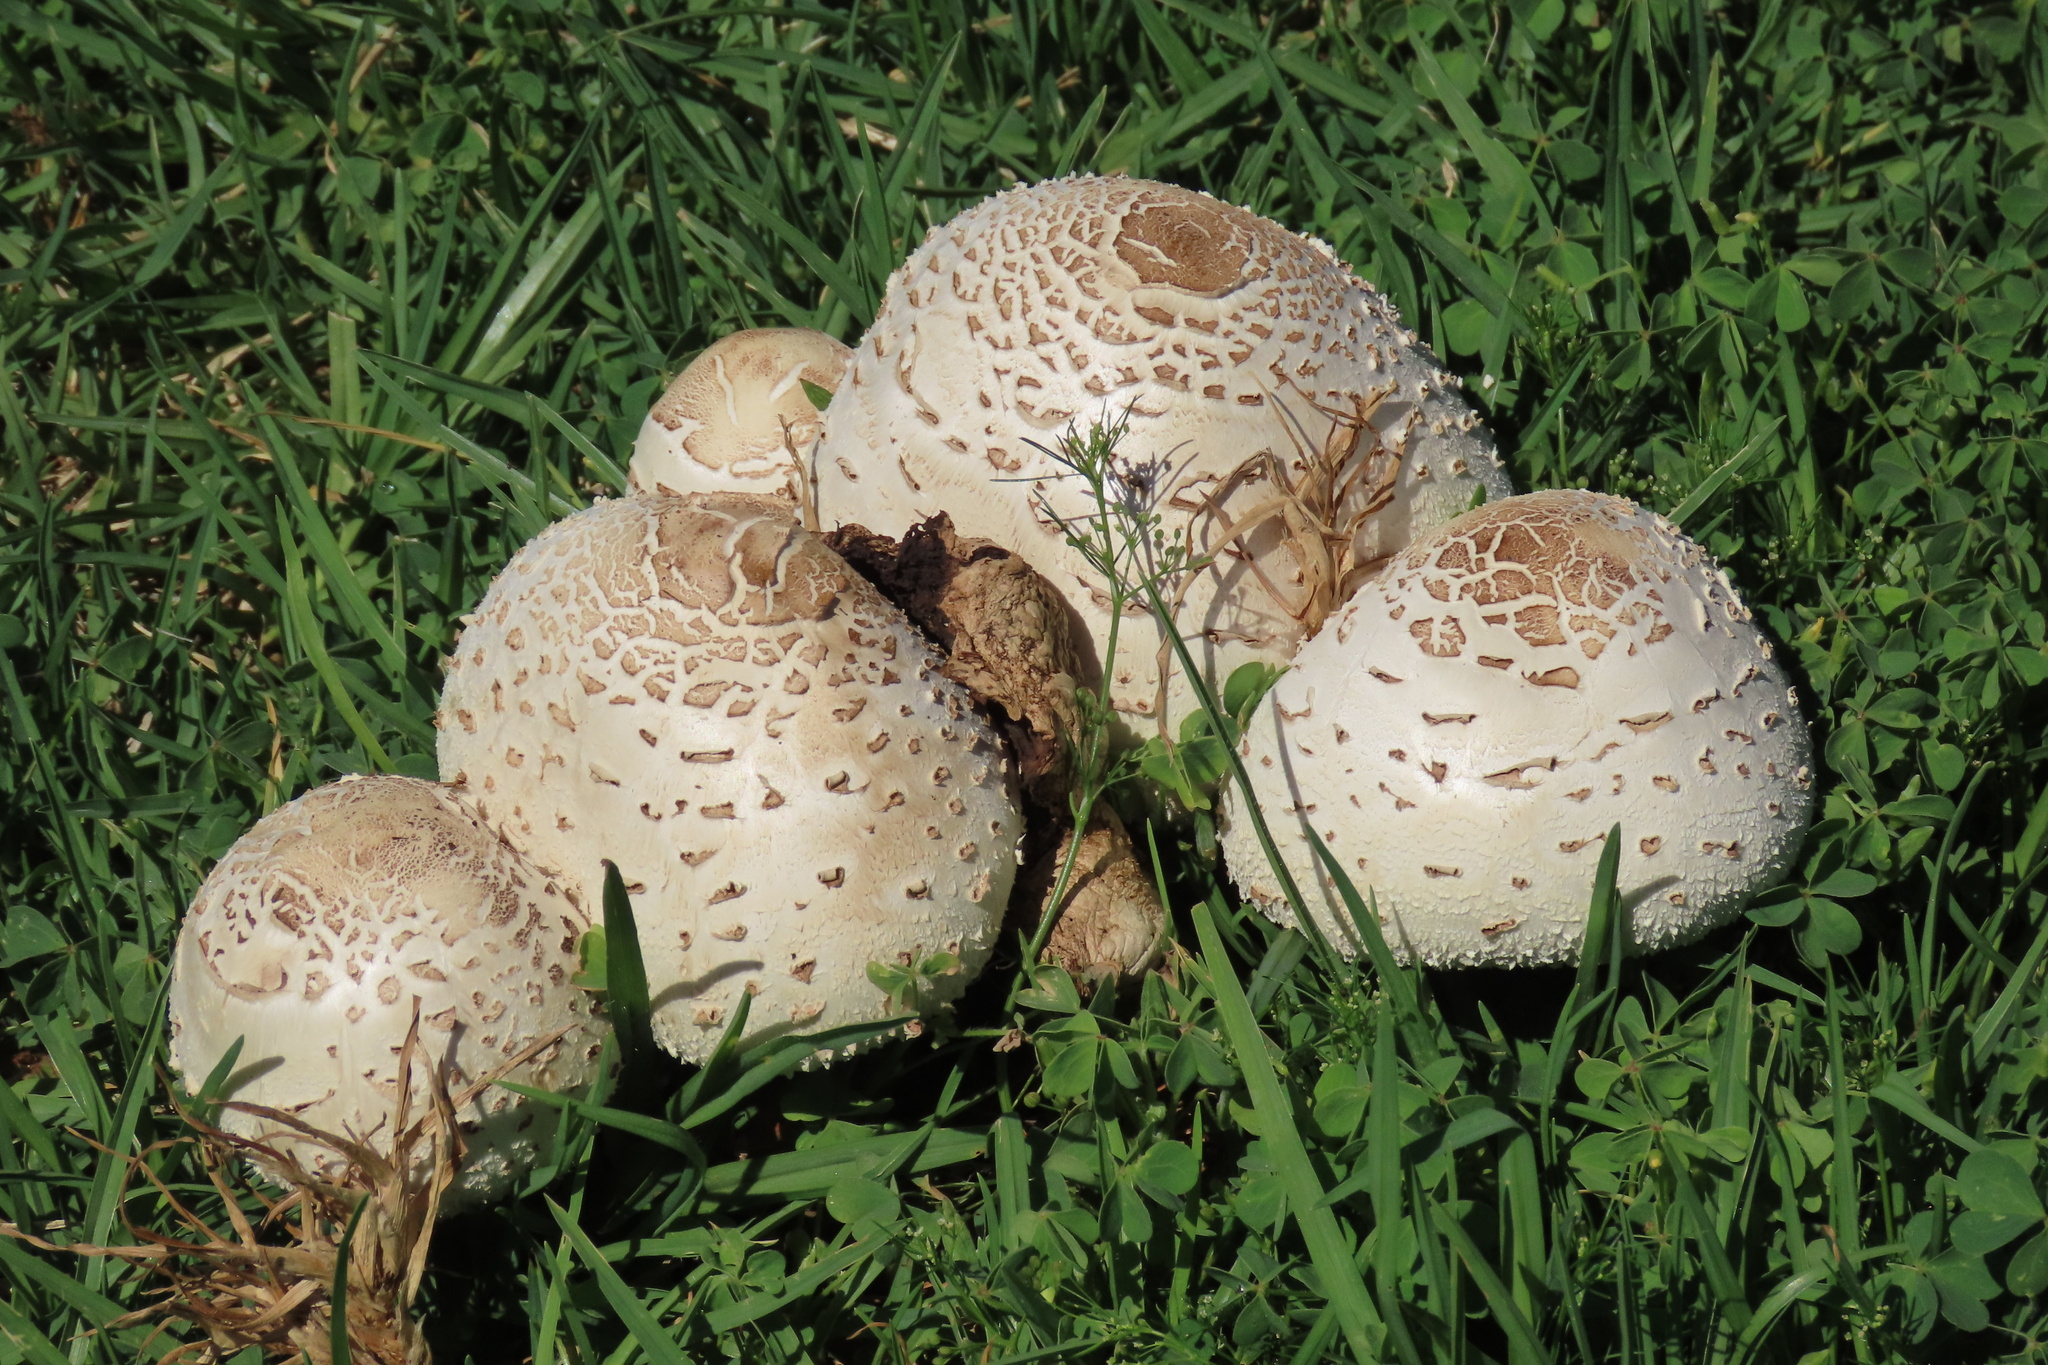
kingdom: Fungi
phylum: Basidiomycota
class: Agaricomycetes
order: Agaricales
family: Agaricaceae
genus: Chlorophyllum
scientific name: Chlorophyllum molybdites
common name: False parasol
